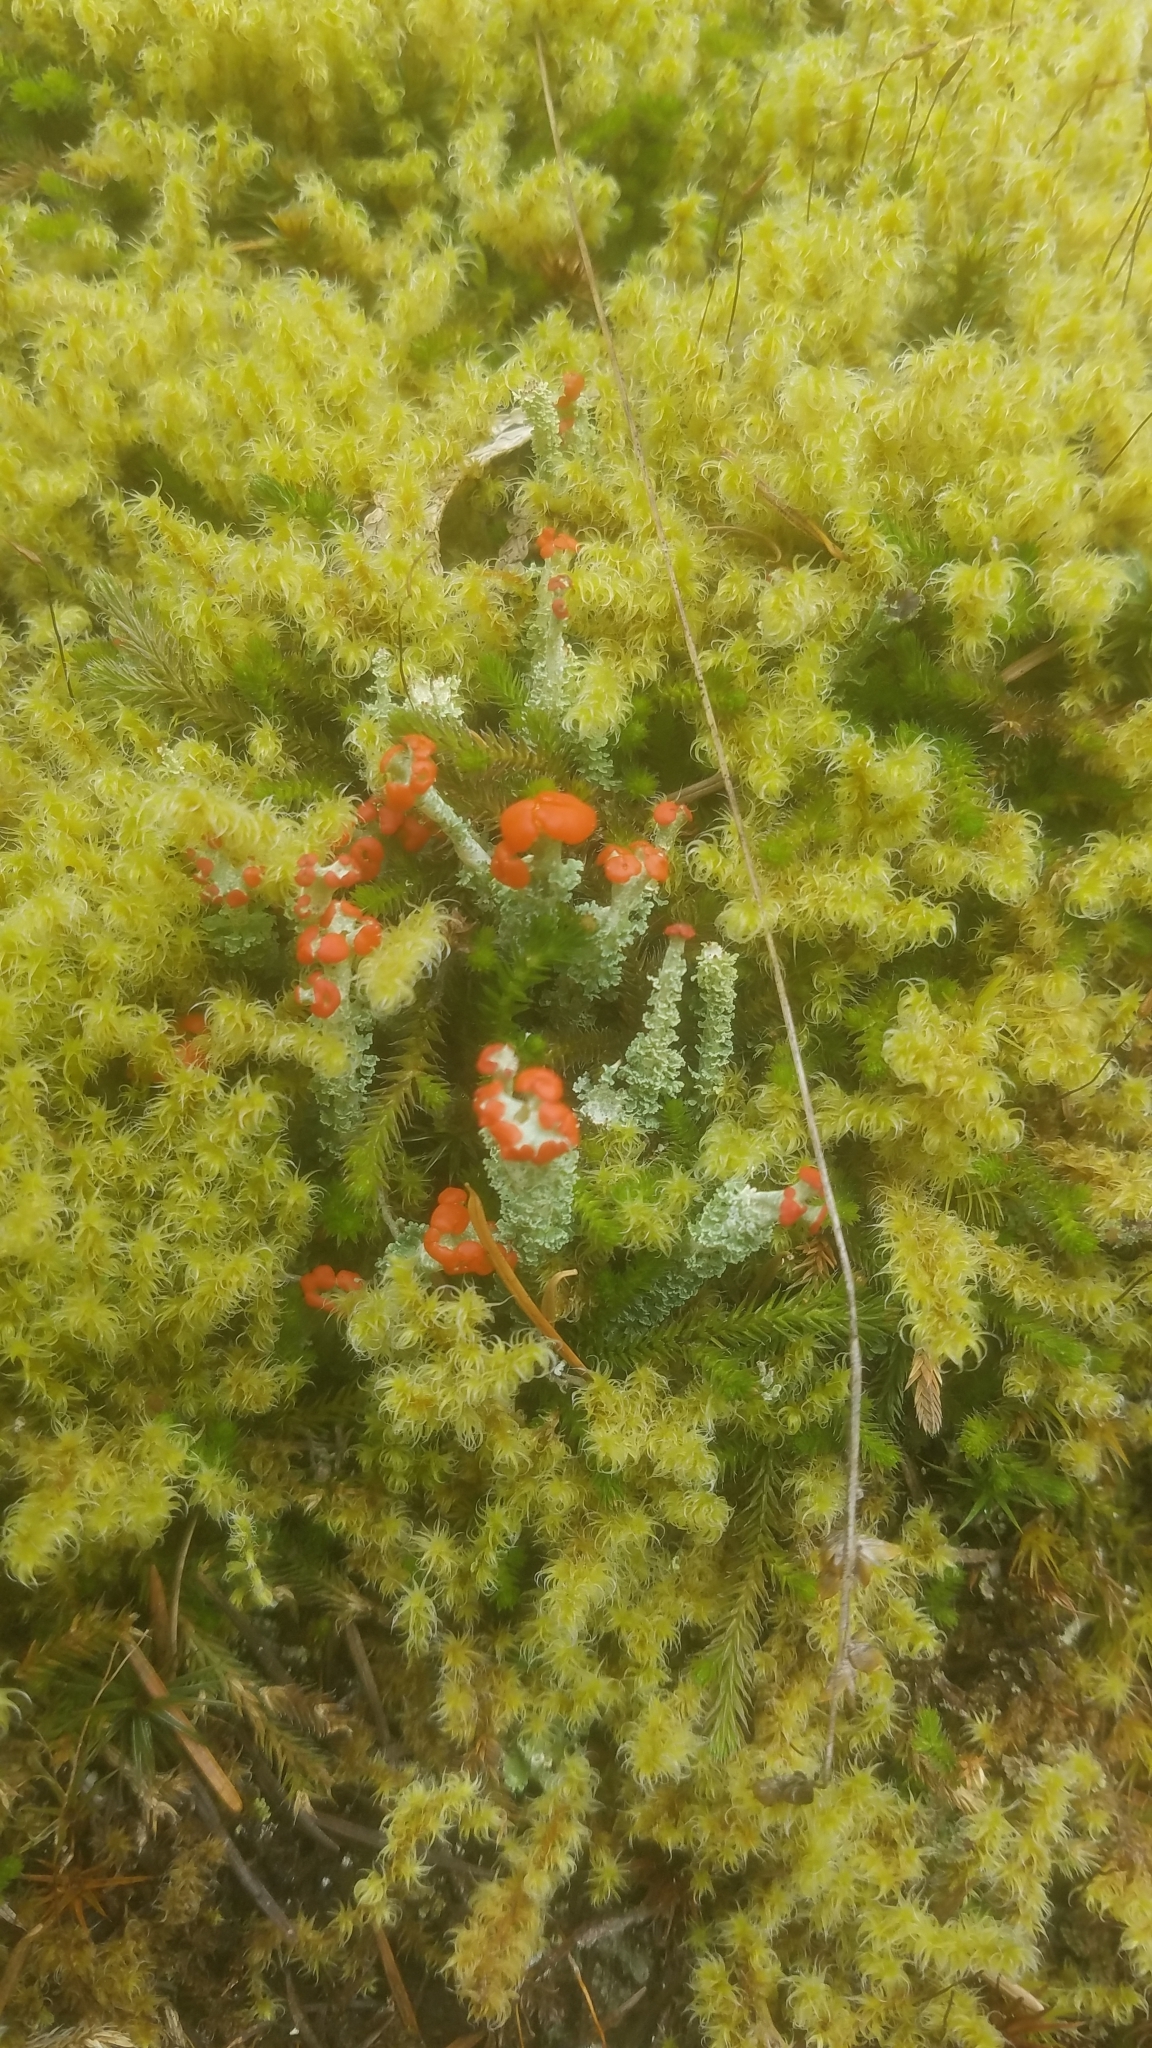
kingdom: Fungi
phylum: Ascomycota
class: Lecanoromycetes
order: Lecanorales
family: Cladoniaceae
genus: Cladonia
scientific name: Cladonia bellidiflora
